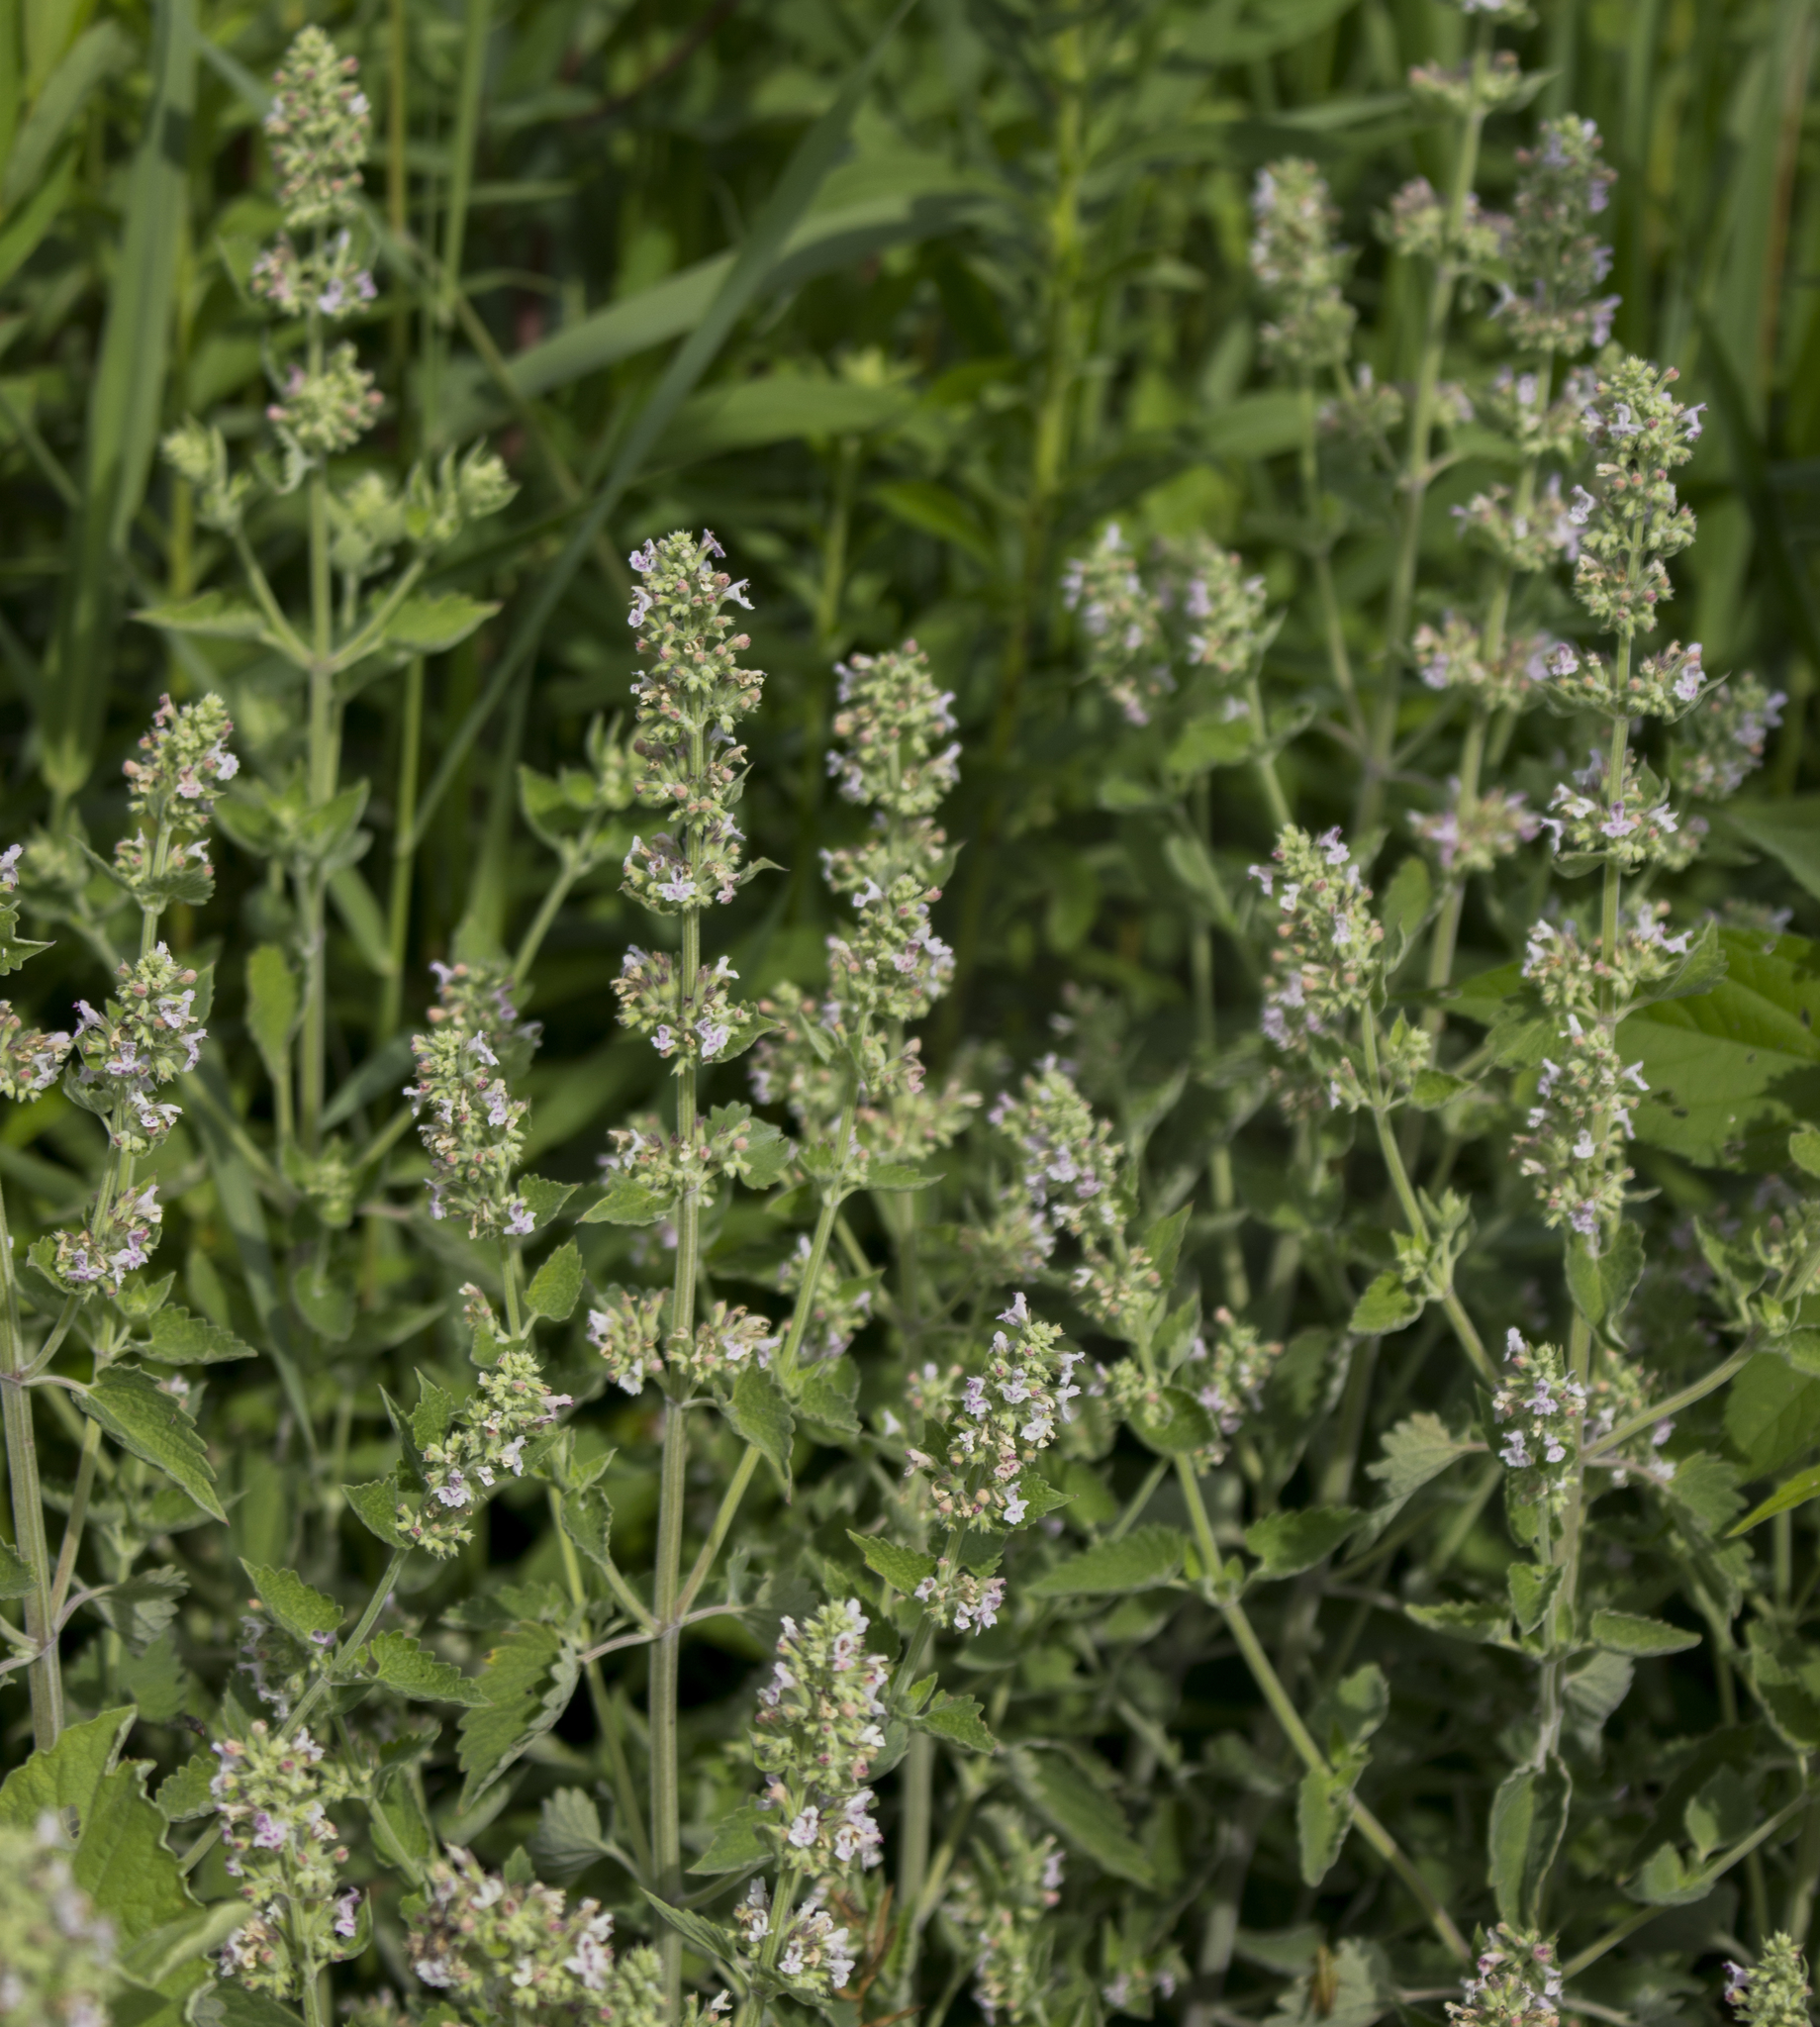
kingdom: Plantae
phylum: Tracheophyta
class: Magnoliopsida
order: Lamiales
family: Lamiaceae
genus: Nepeta
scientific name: Nepeta cataria
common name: Catnip
